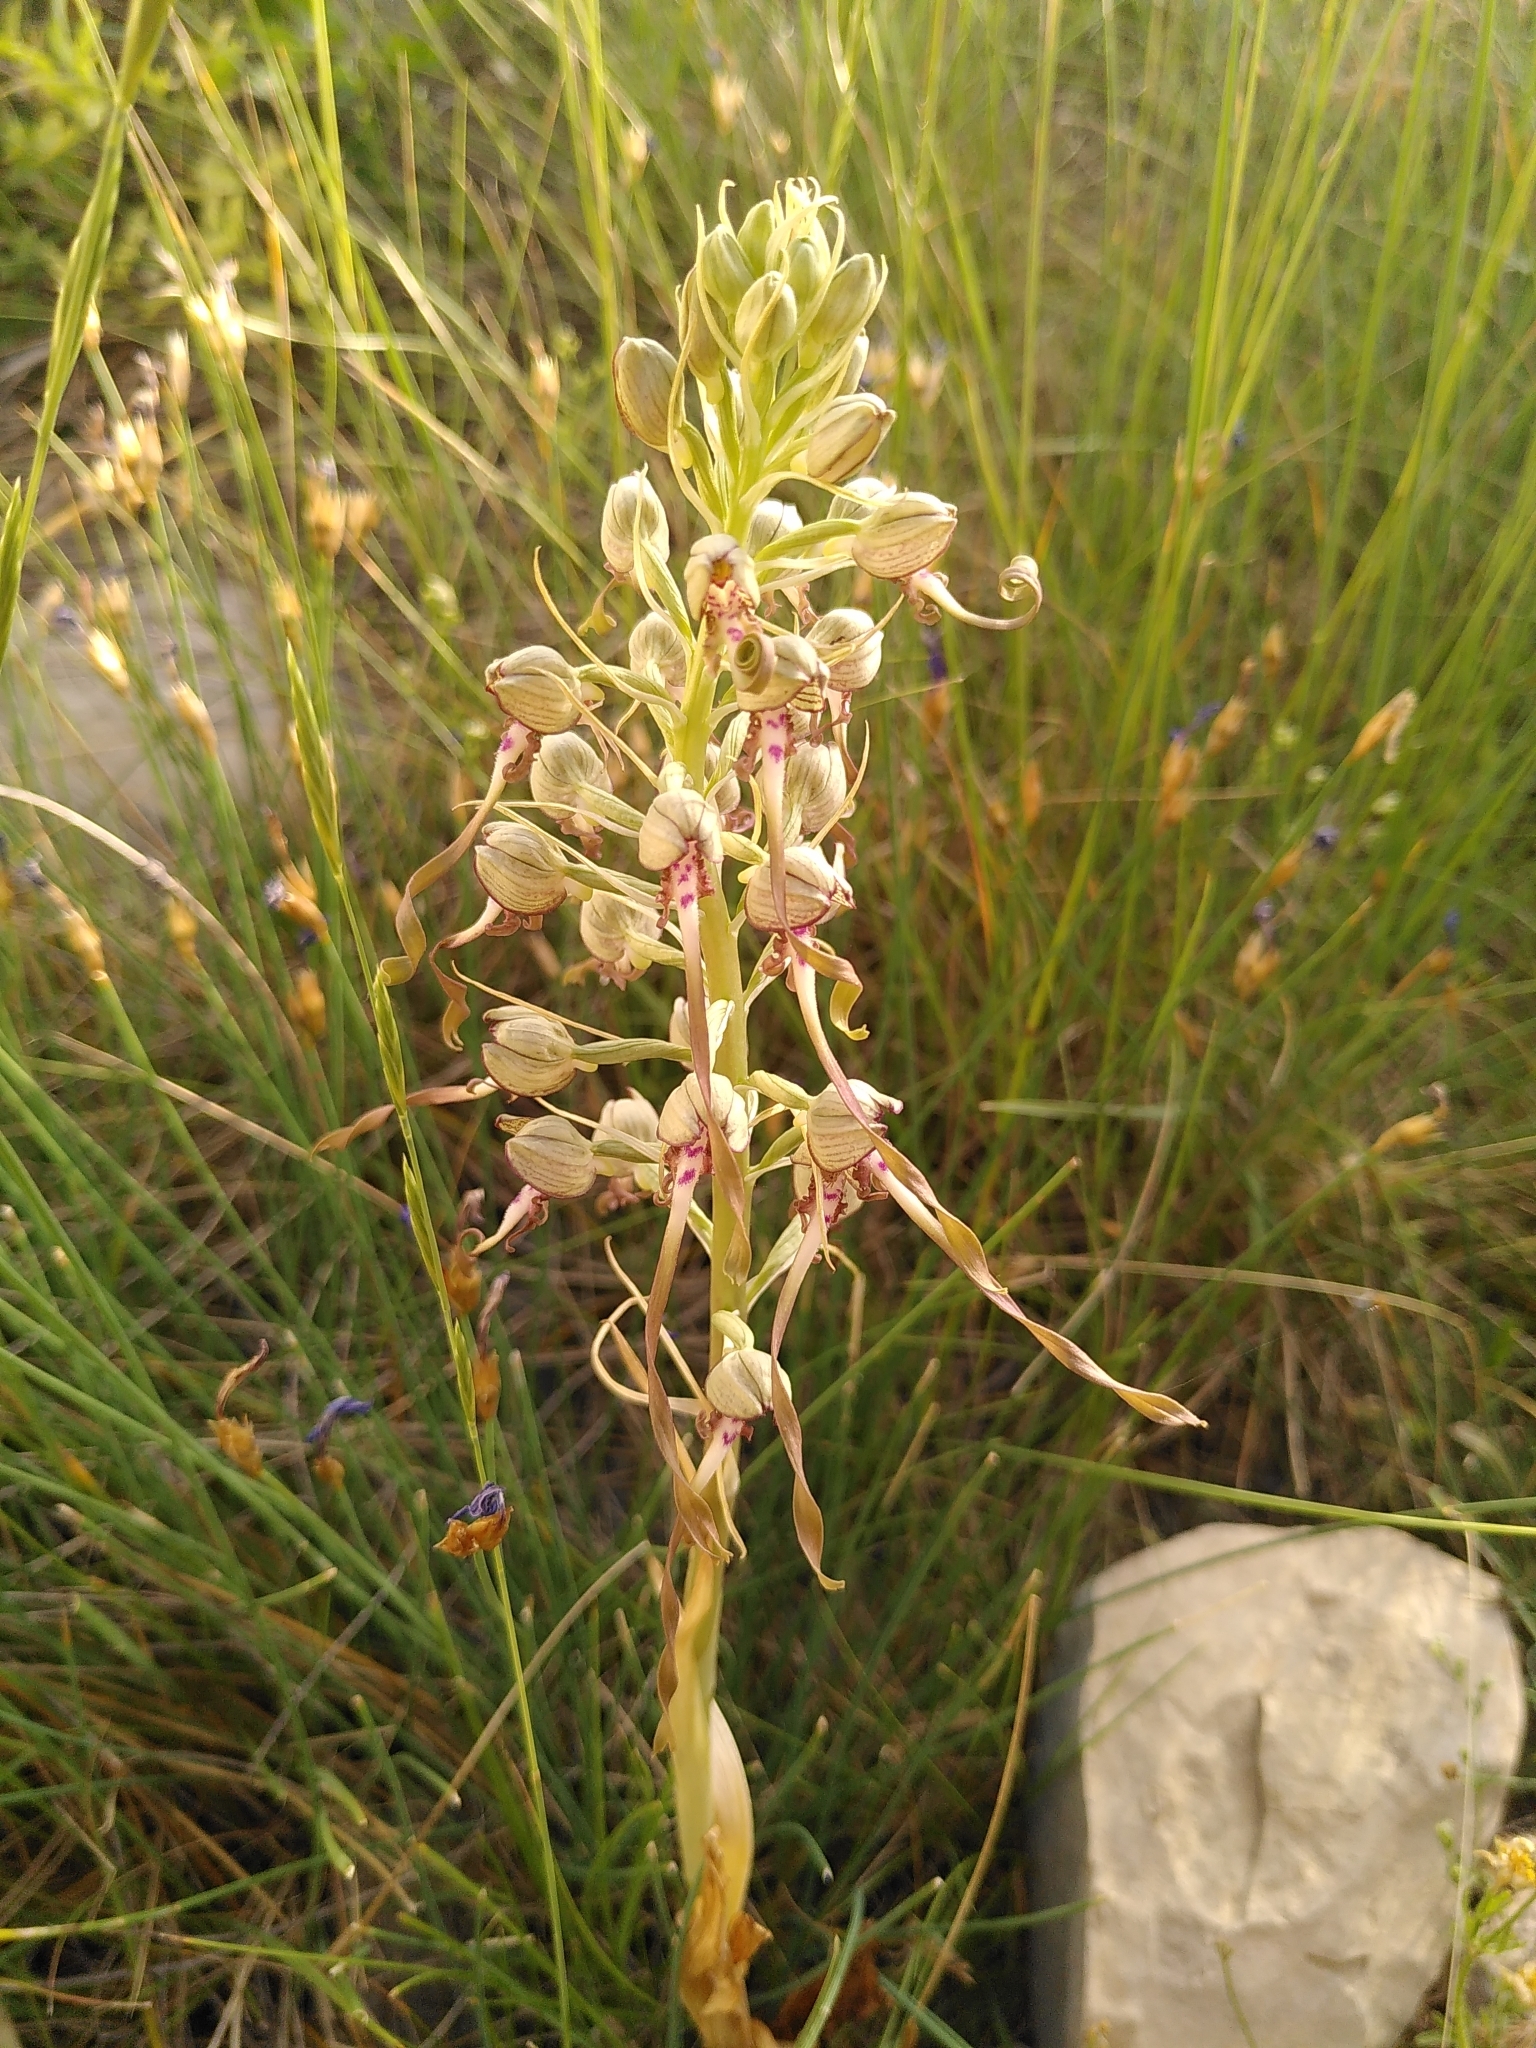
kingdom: Plantae
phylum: Tracheophyta
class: Liliopsida
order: Asparagales
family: Orchidaceae
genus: Himantoglossum
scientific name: Himantoglossum hircinum
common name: Lizard orchid
